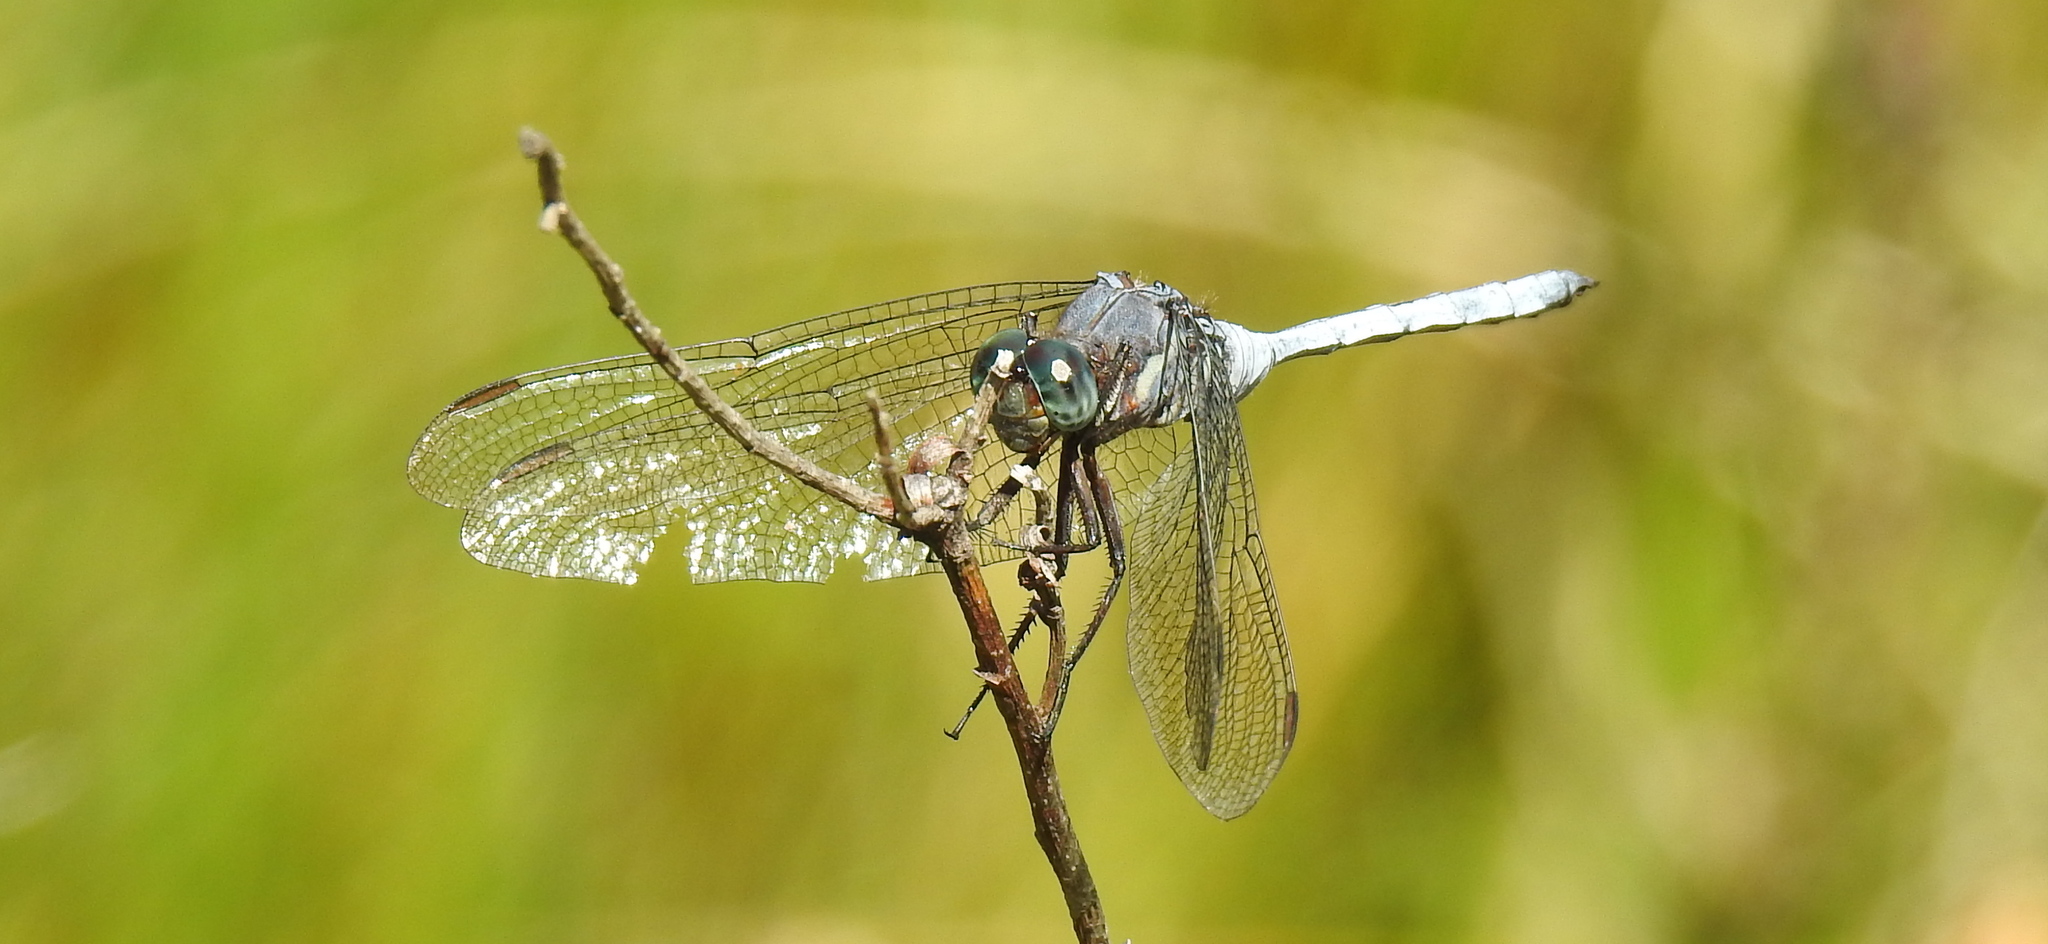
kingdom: Animalia
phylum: Arthropoda
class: Insecta
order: Odonata
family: Libellulidae
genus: Orthetrum
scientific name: Orthetrum julia
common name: Julia skimmer
